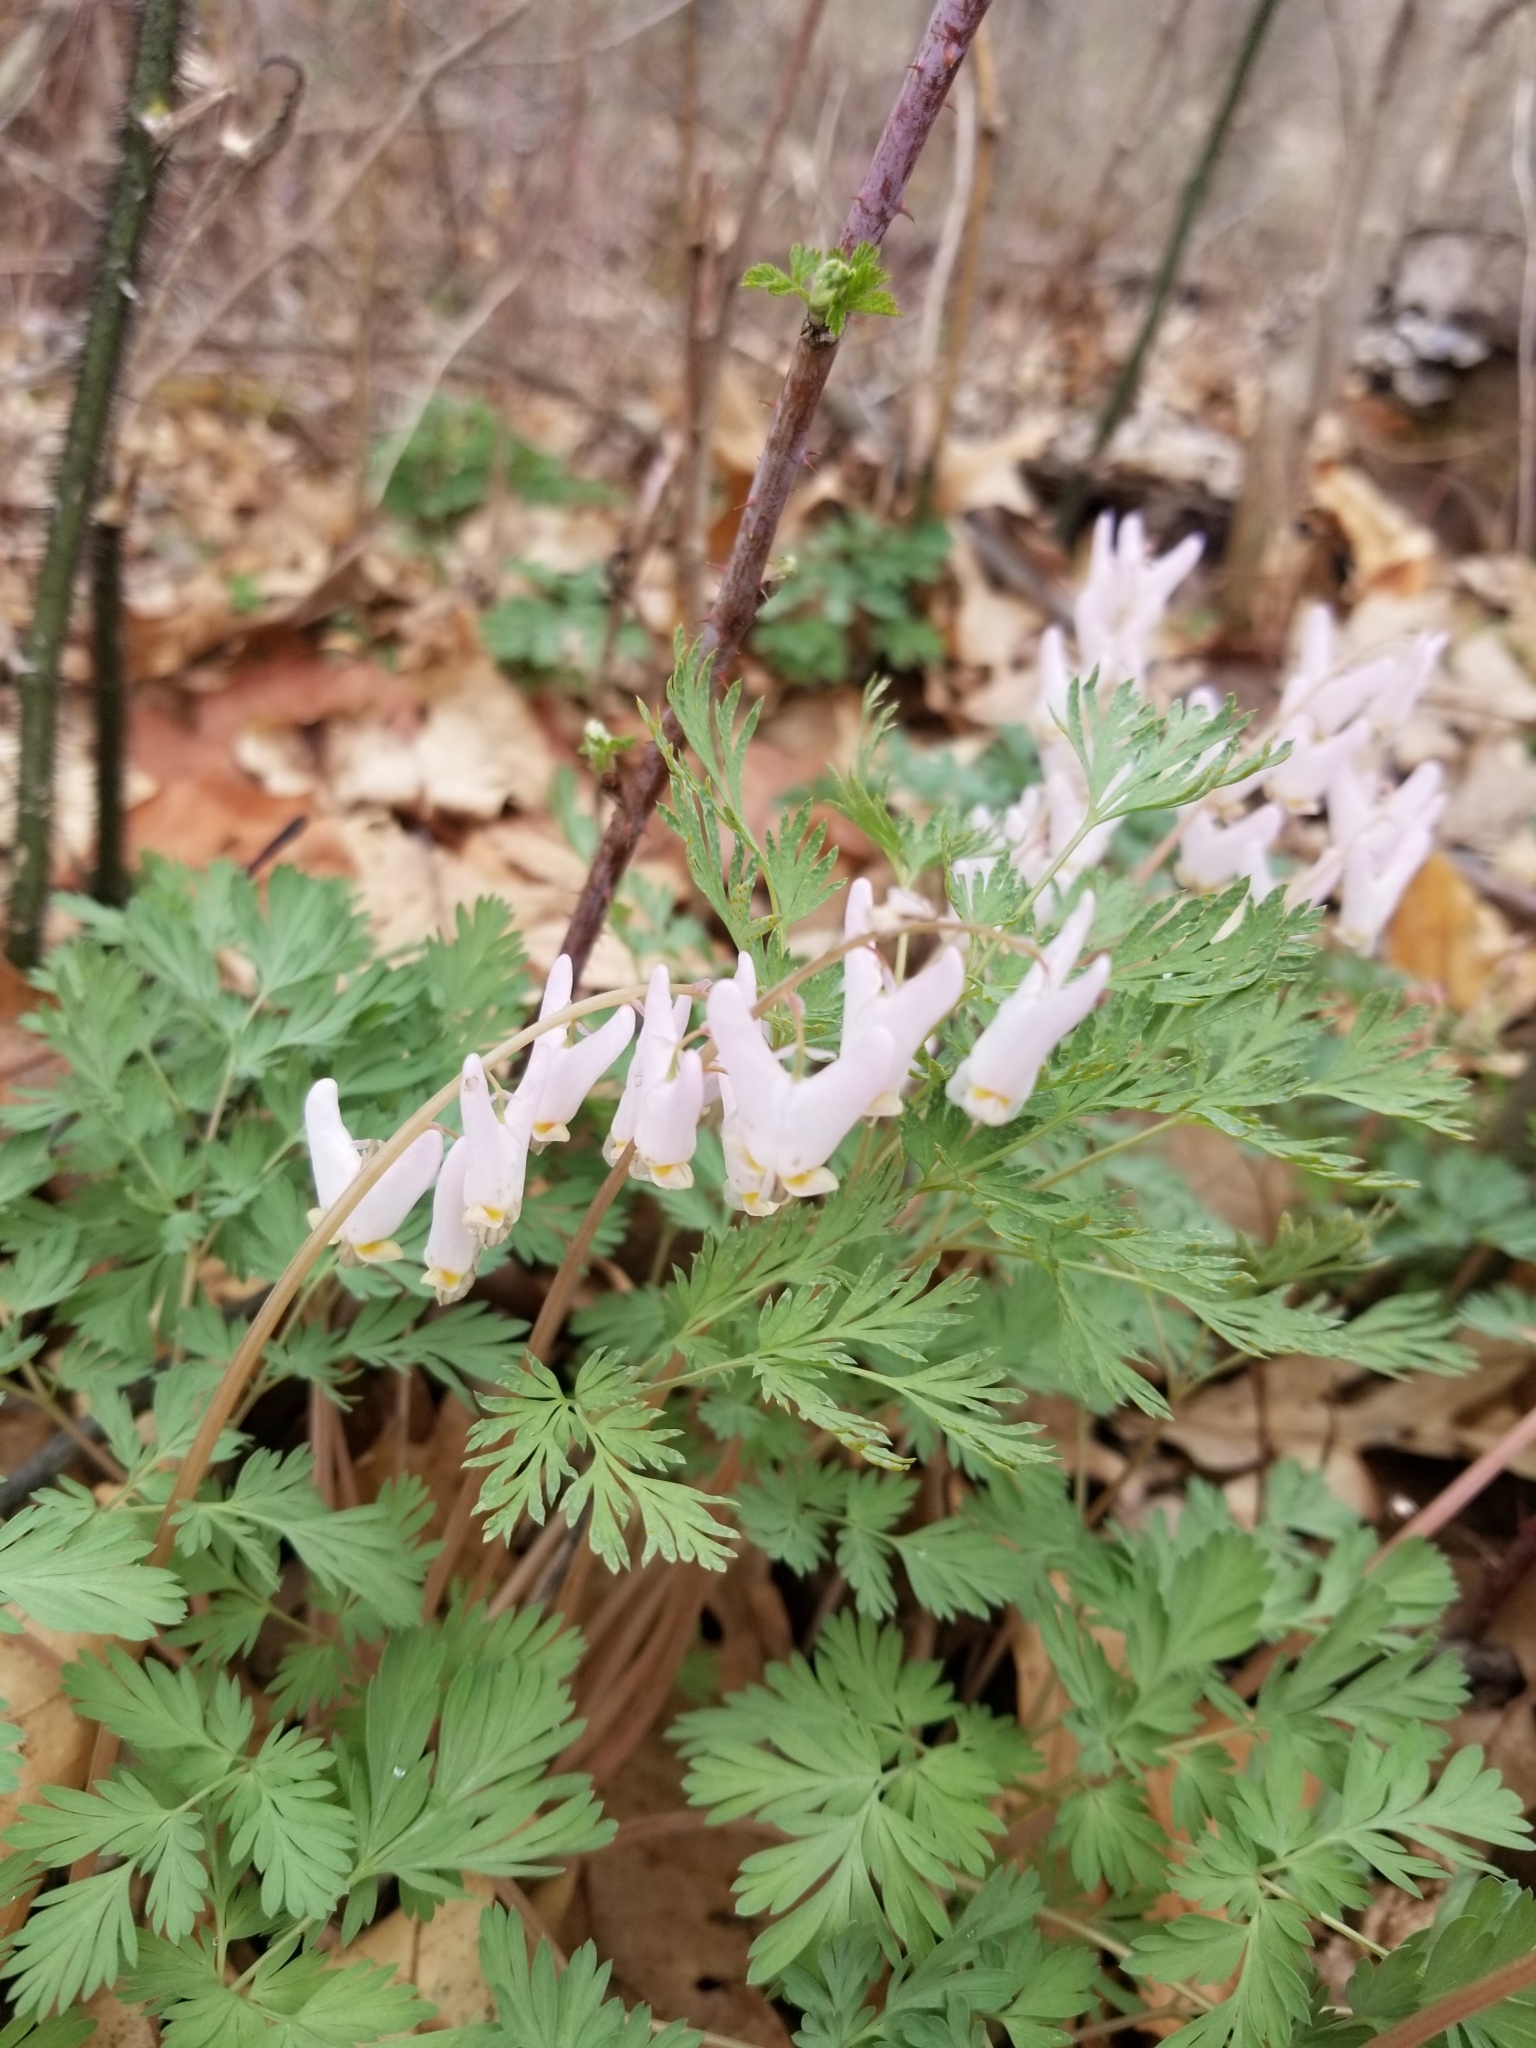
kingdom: Plantae
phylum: Tracheophyta
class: Magnoliopsida
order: Ranunculales
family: Papaveraceae
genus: Dicentra
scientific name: Dicentra cucullaria
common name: Dutchman's breeches
